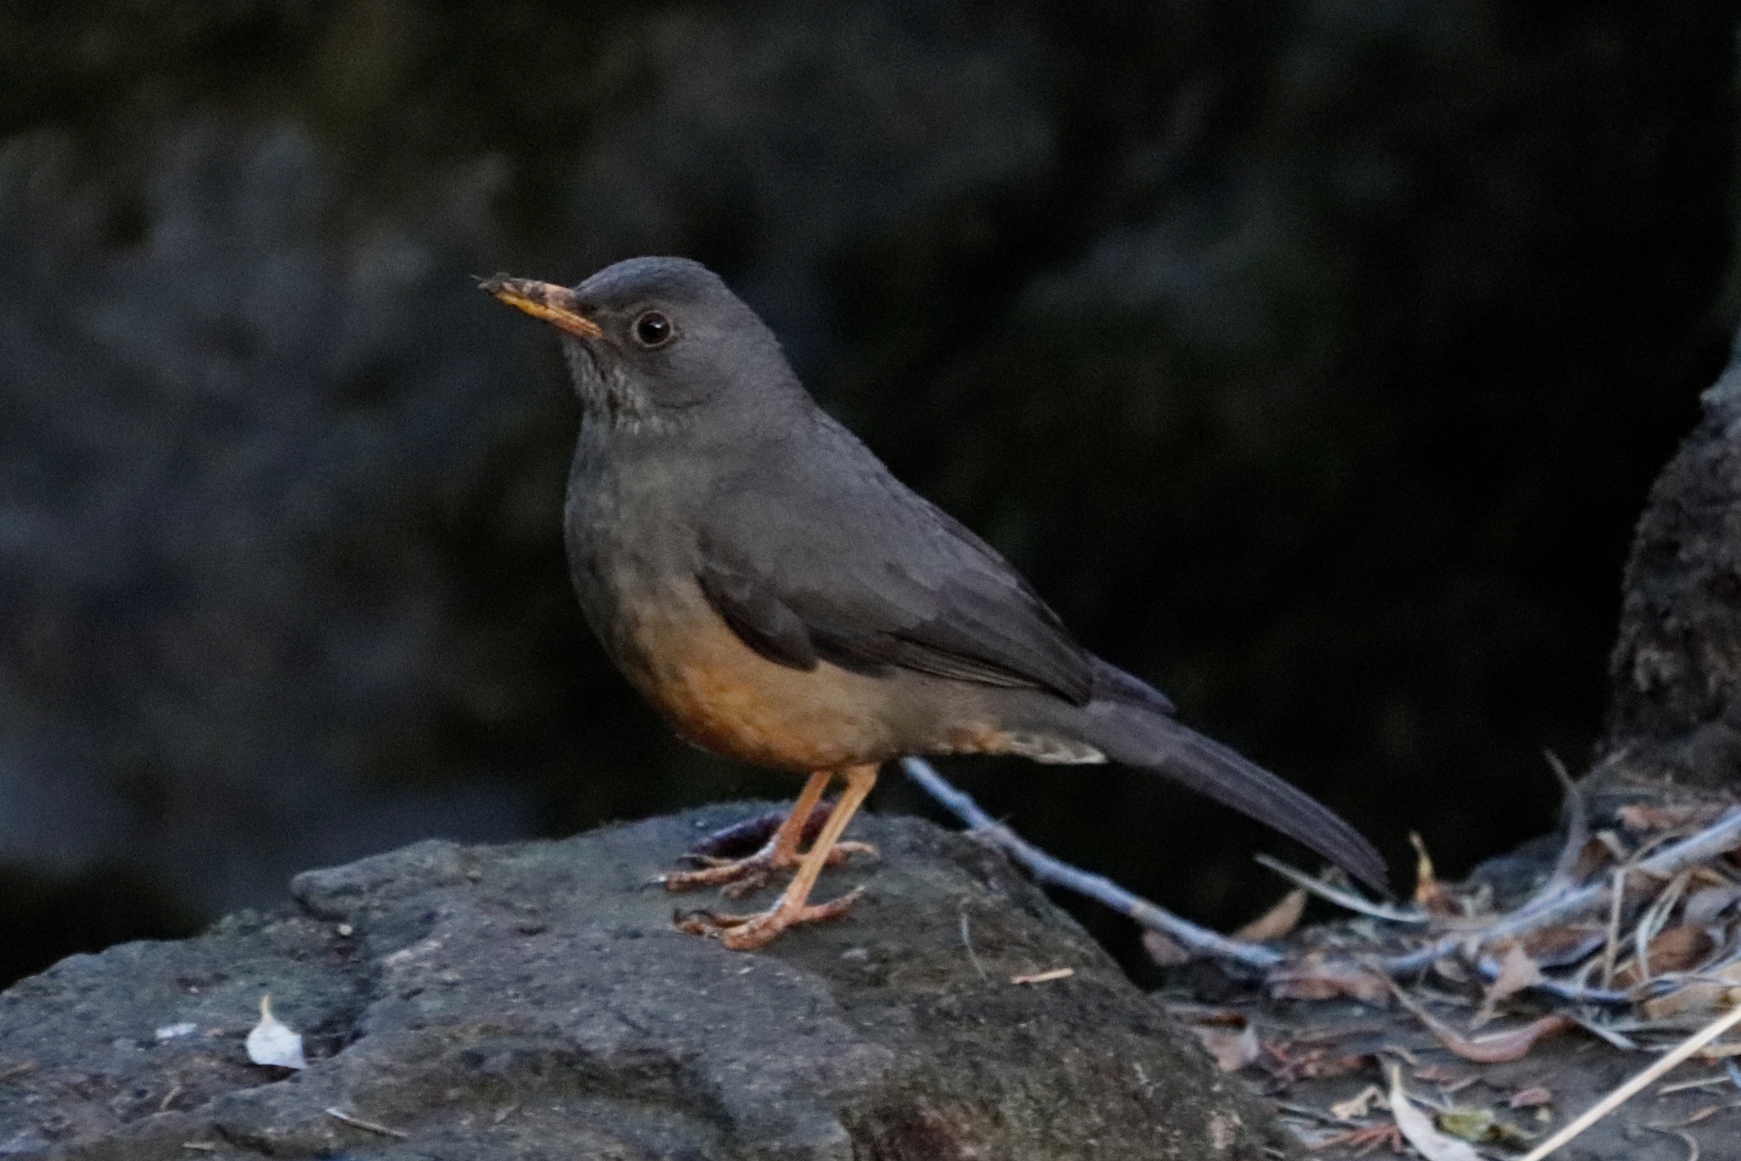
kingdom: Animalia
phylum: Chordata
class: Aves
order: Passeriformes
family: Turdidae
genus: Turdus
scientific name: Turdus smithi
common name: Karoo thrush
